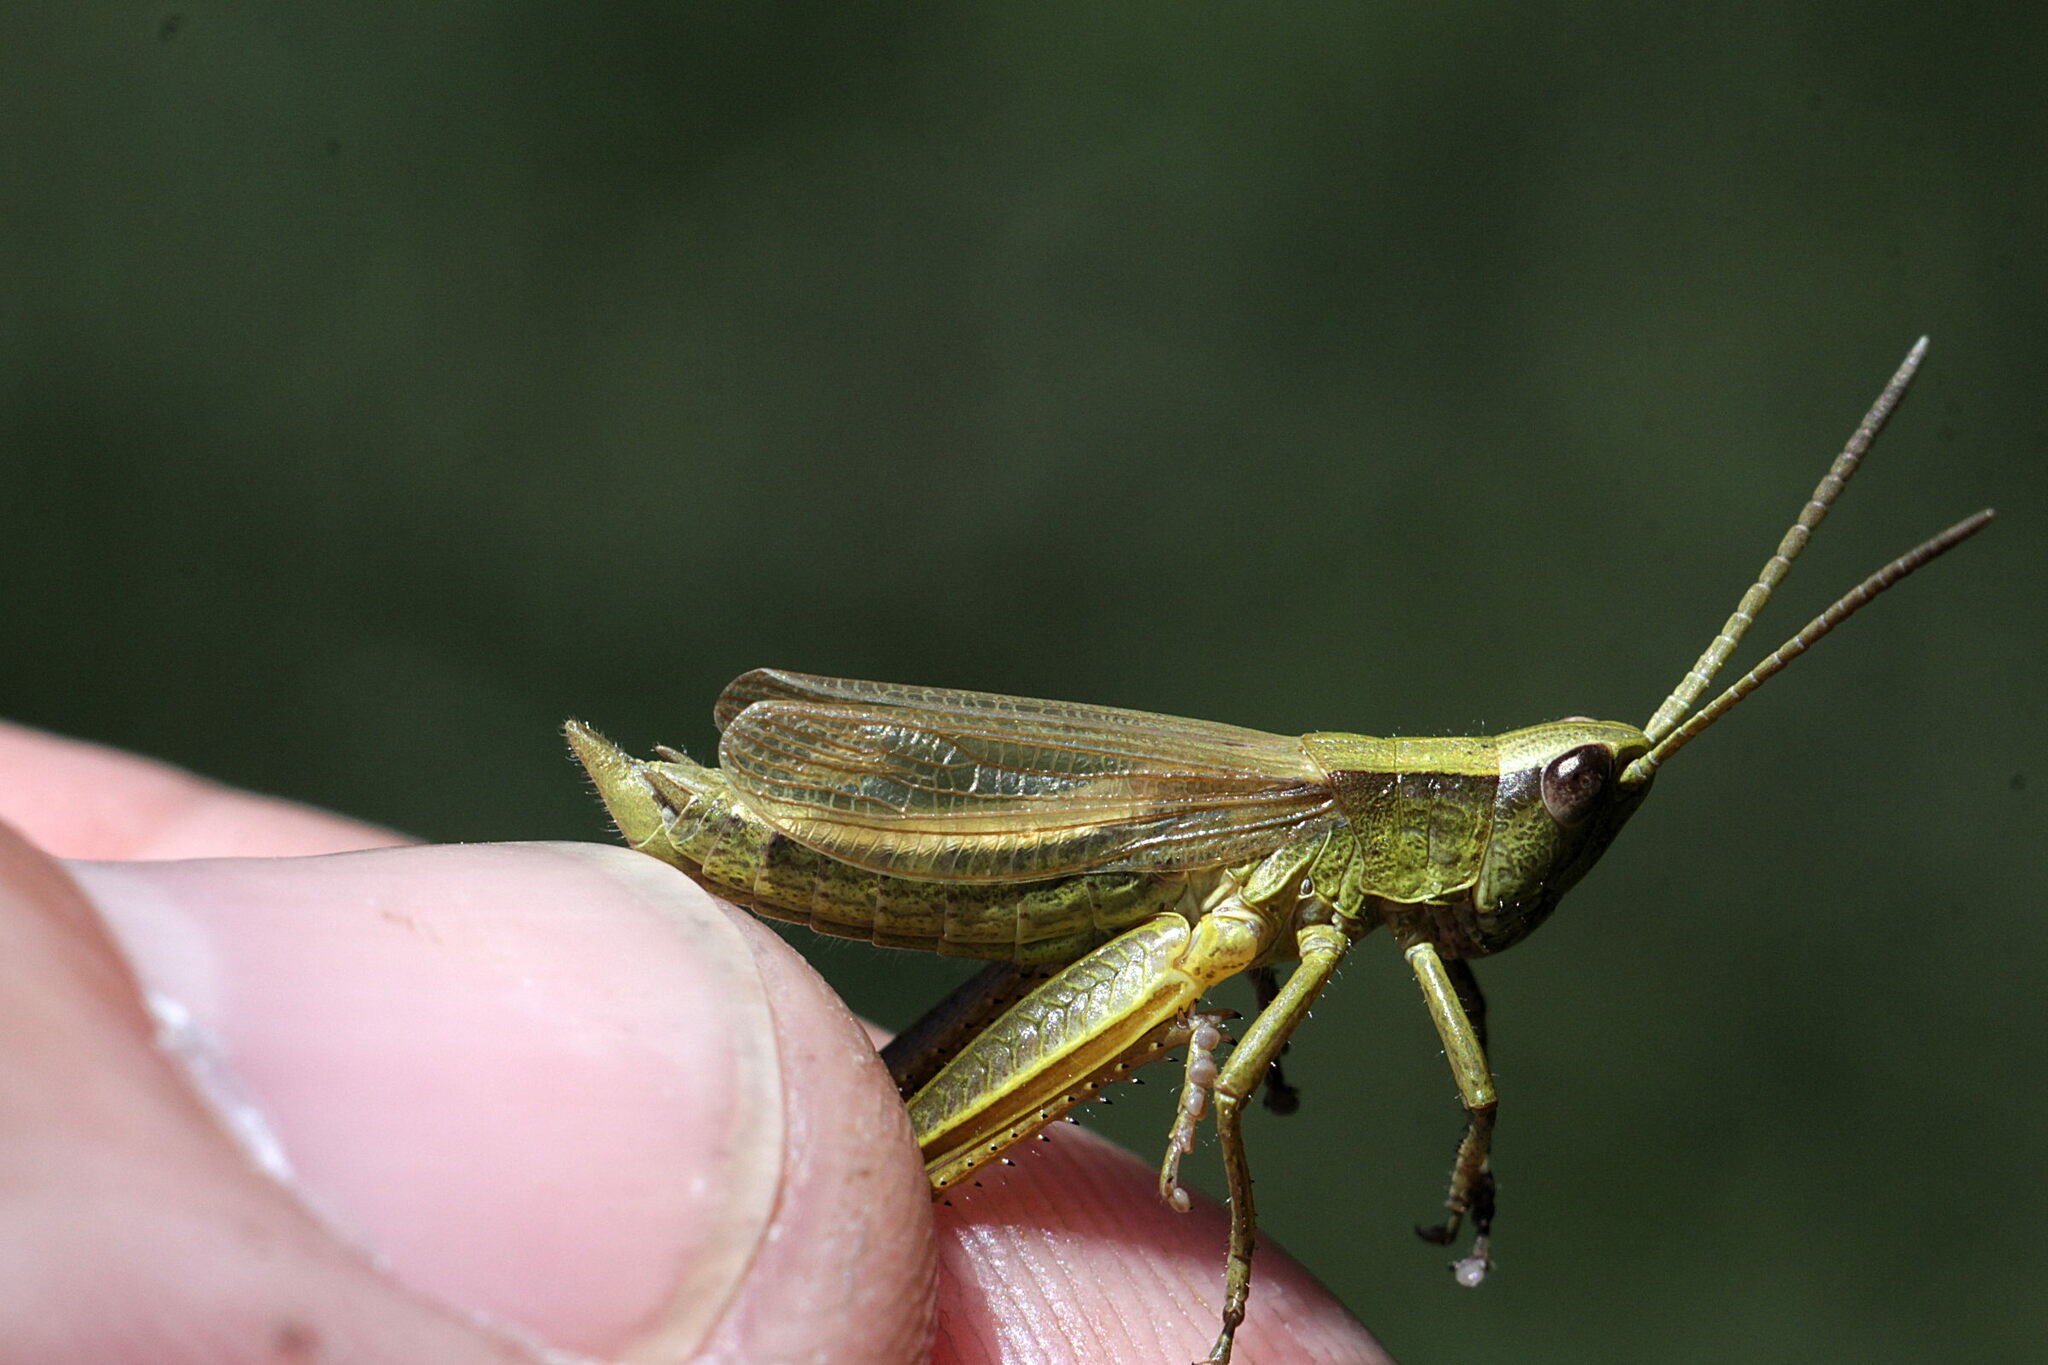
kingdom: Animalia
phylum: Arthropoda
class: Insecta
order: Orthoptera
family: Acrididae
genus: Chrysochraon
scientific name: Chrysochraon dispar
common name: Large gold grasshopper
